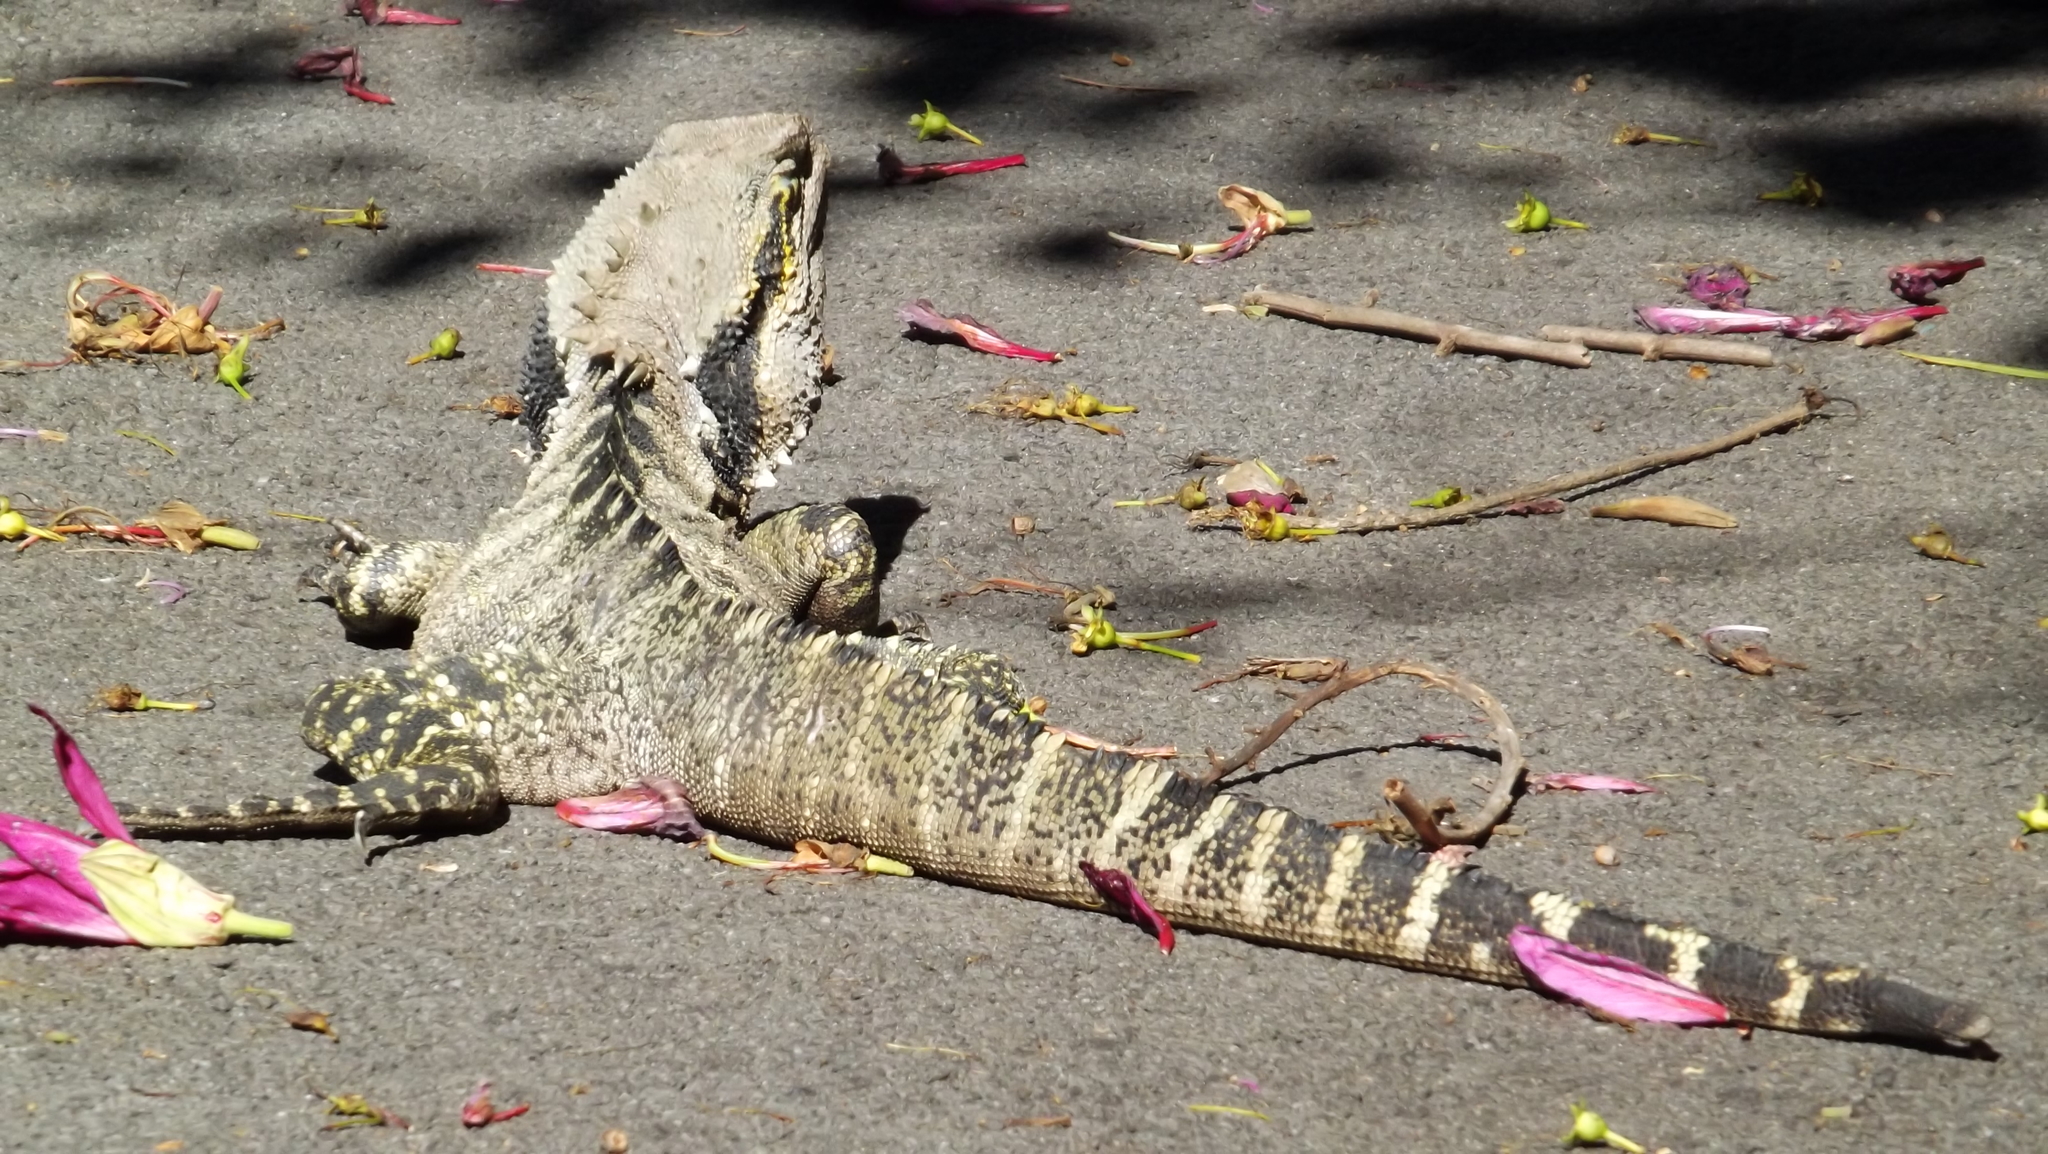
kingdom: Animalia
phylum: Chordata
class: Squamata
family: Agamidae
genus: Intellagama
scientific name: Intellagama lesueurii
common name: Eastern water dragon
